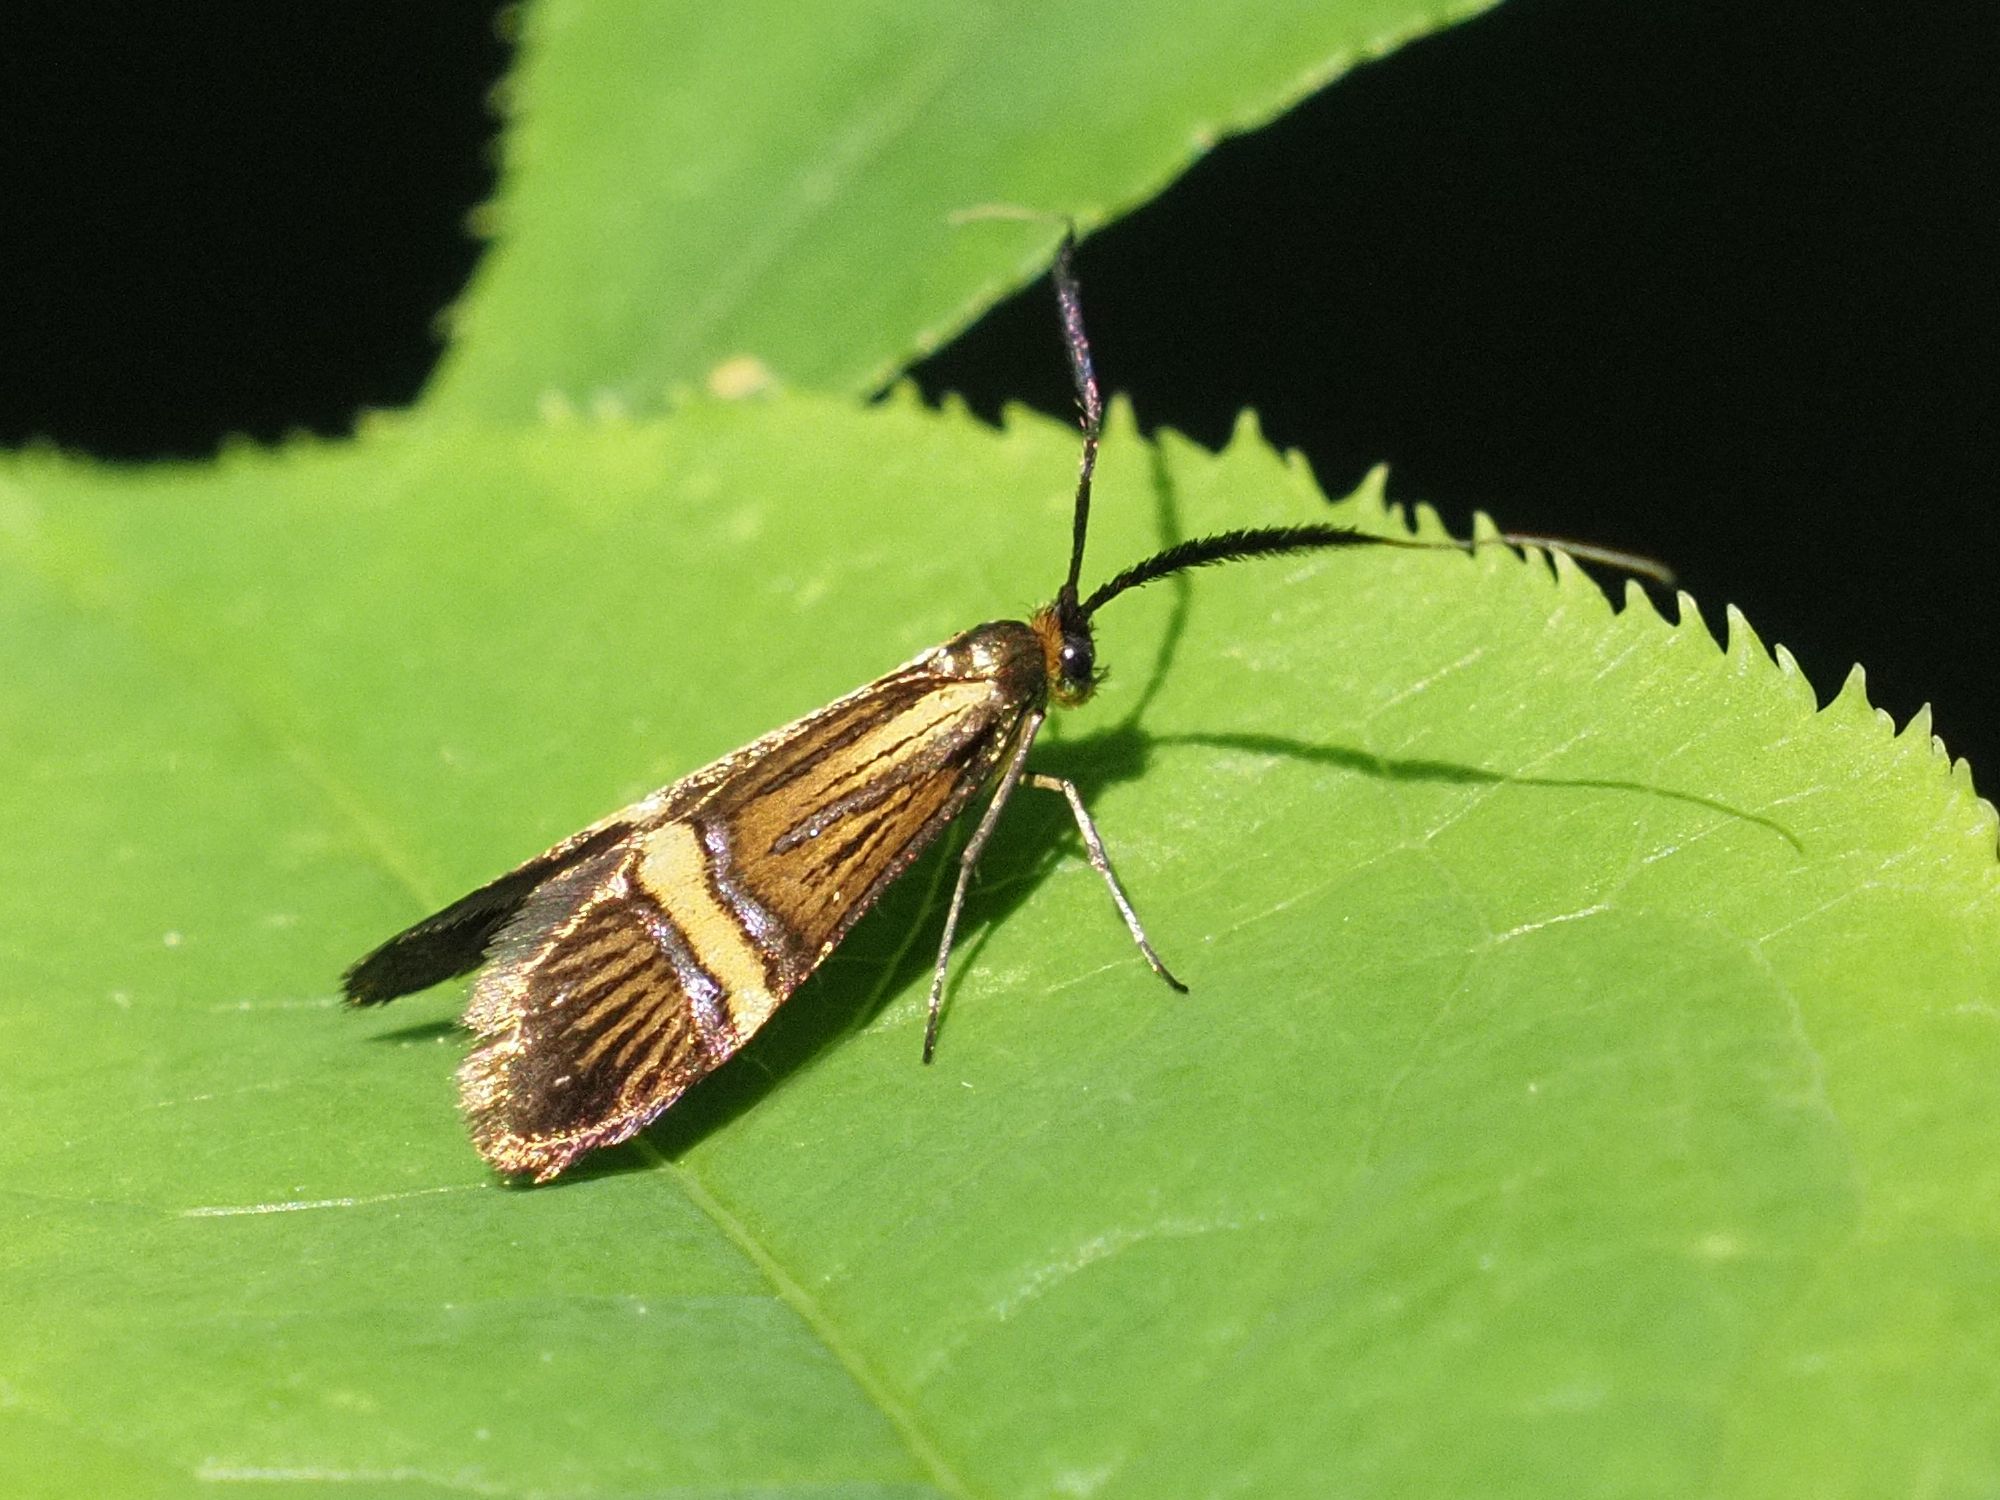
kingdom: Animalia
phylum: Arthropoda
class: Insecta
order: Lepidoptera
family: Adelidae
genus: Nemophora
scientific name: Nemophora
